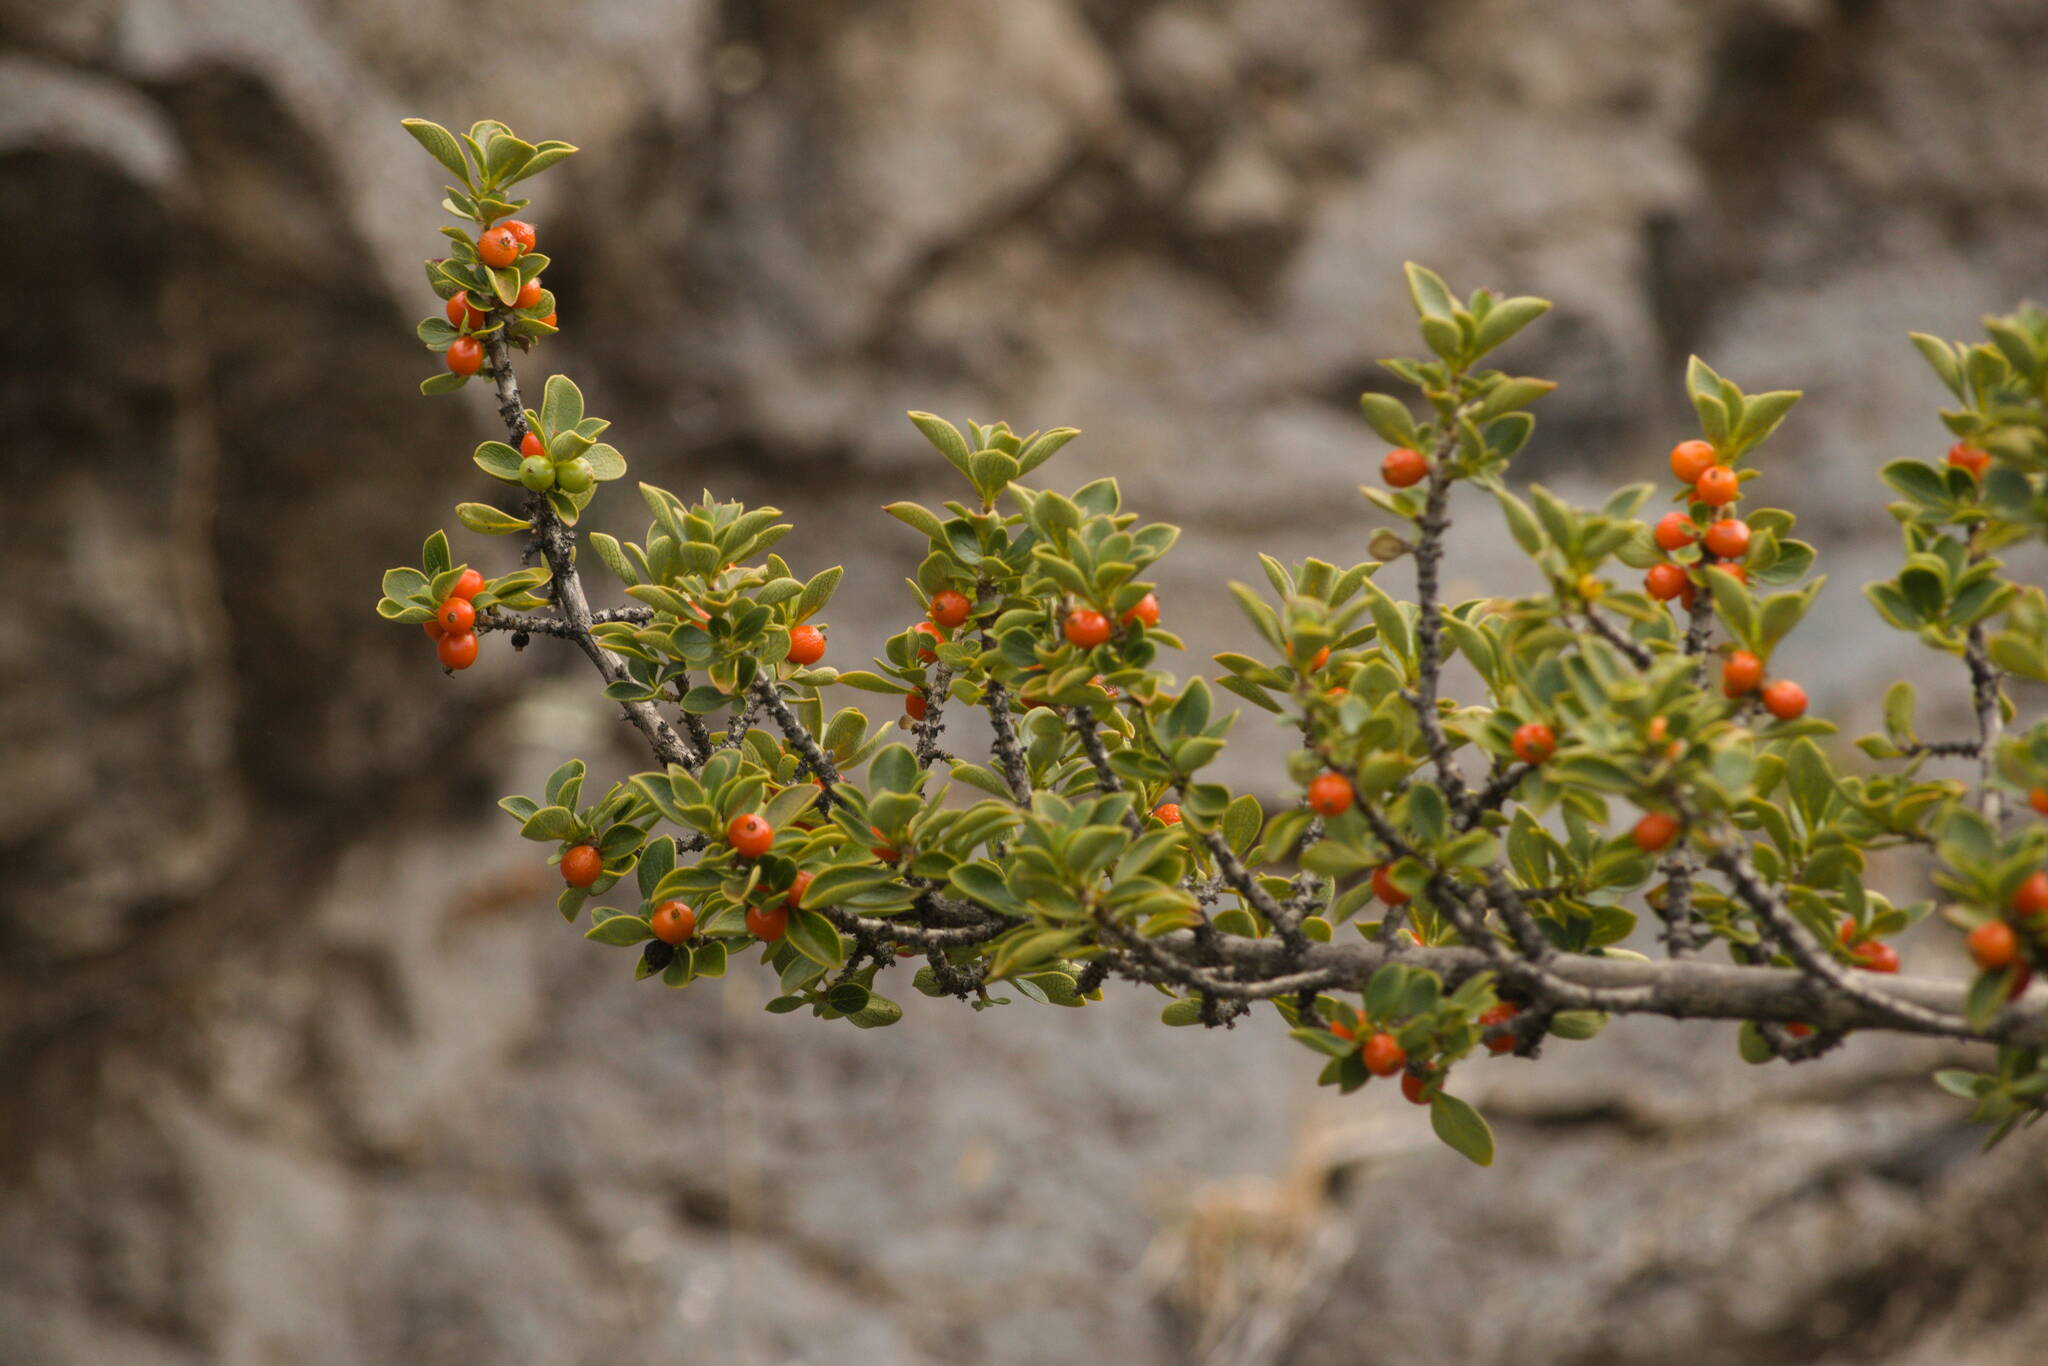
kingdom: Plantae
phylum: Tracheophyta
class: Magnoliopsida
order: Gentianales
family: Rubiaceae
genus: Coprosma
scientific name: Coprosma montana
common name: Alpine mirror plant
